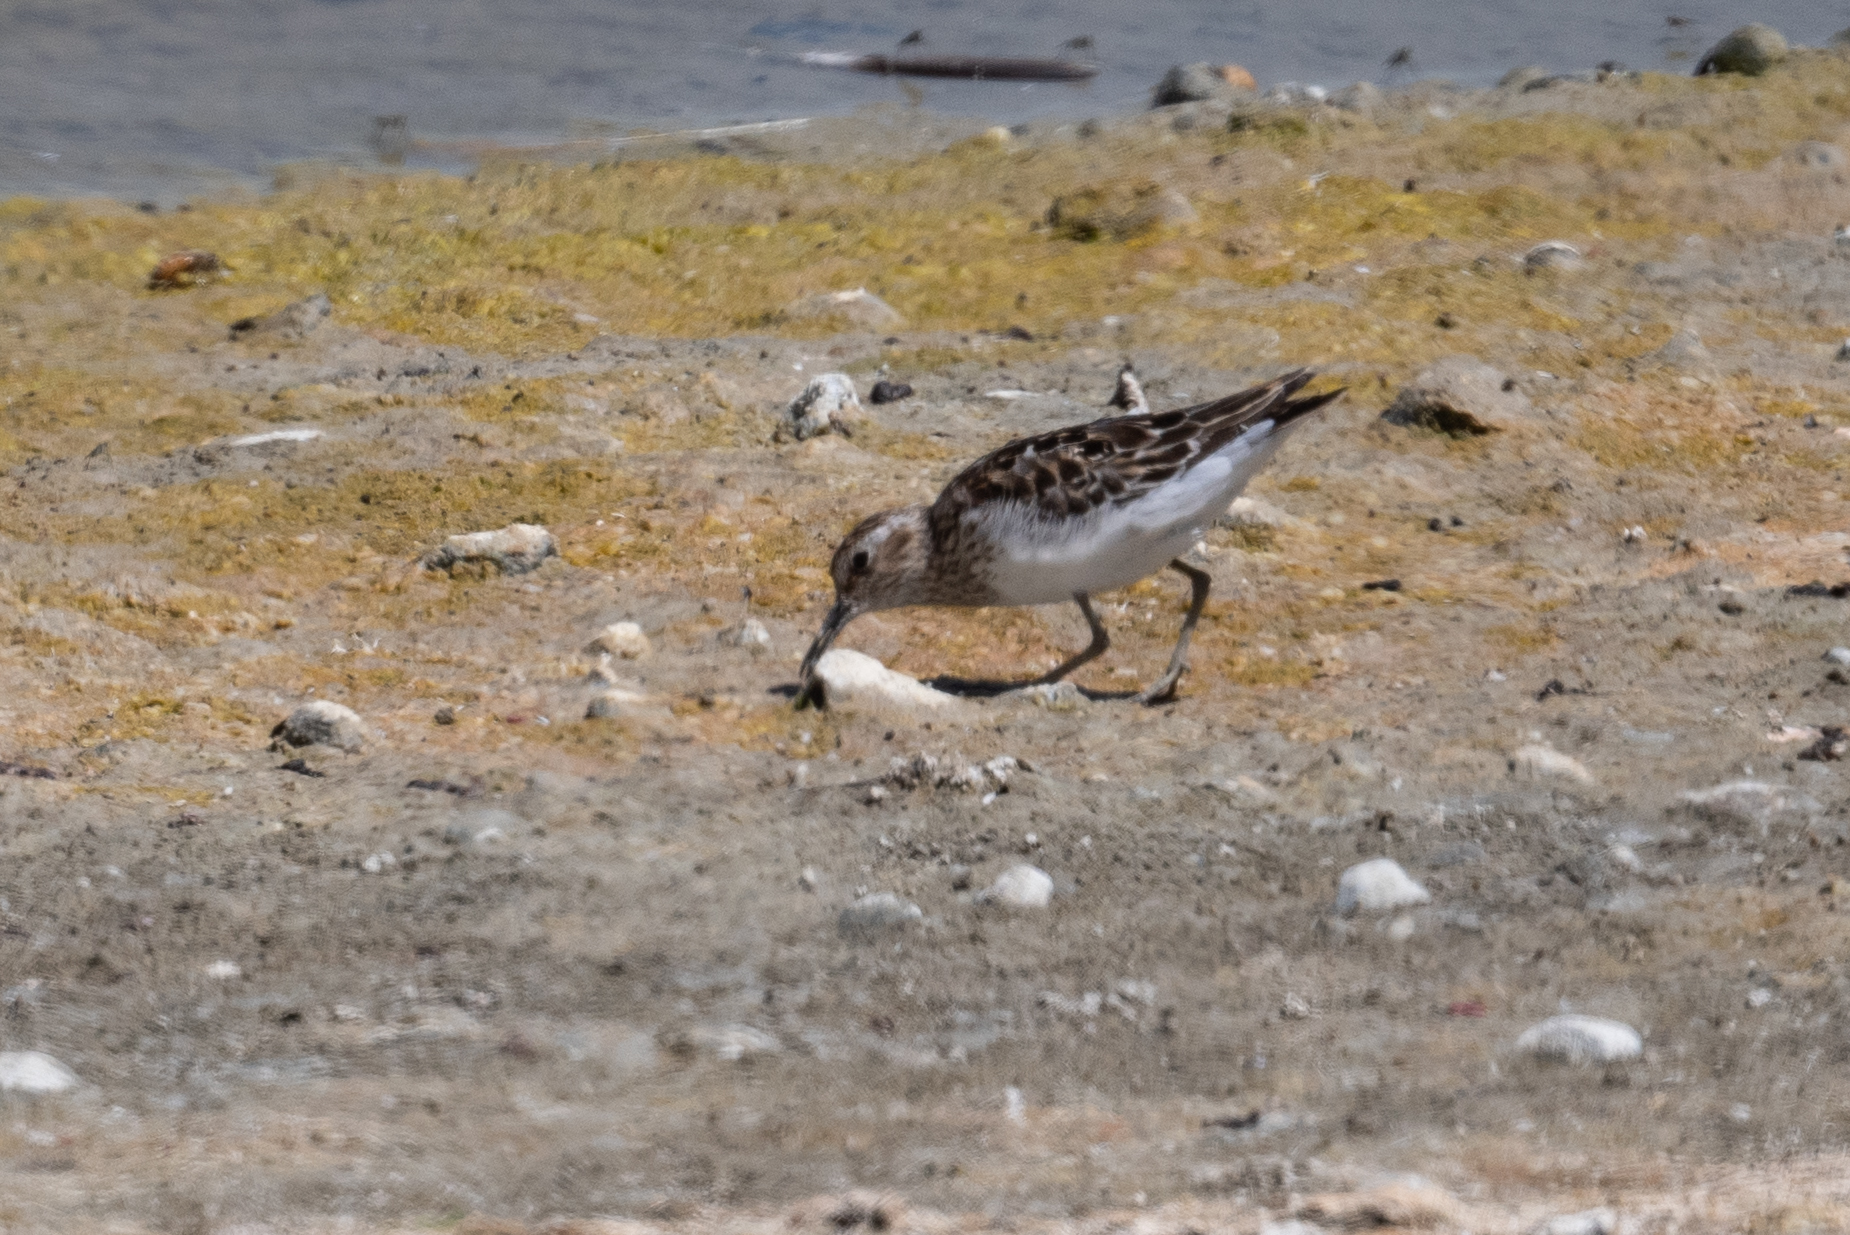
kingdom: Animalia
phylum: Chordata
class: Aves
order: Charadriiformes
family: Scolopacidae
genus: Calidris
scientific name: Calidris minutilla
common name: Least sandpiper
